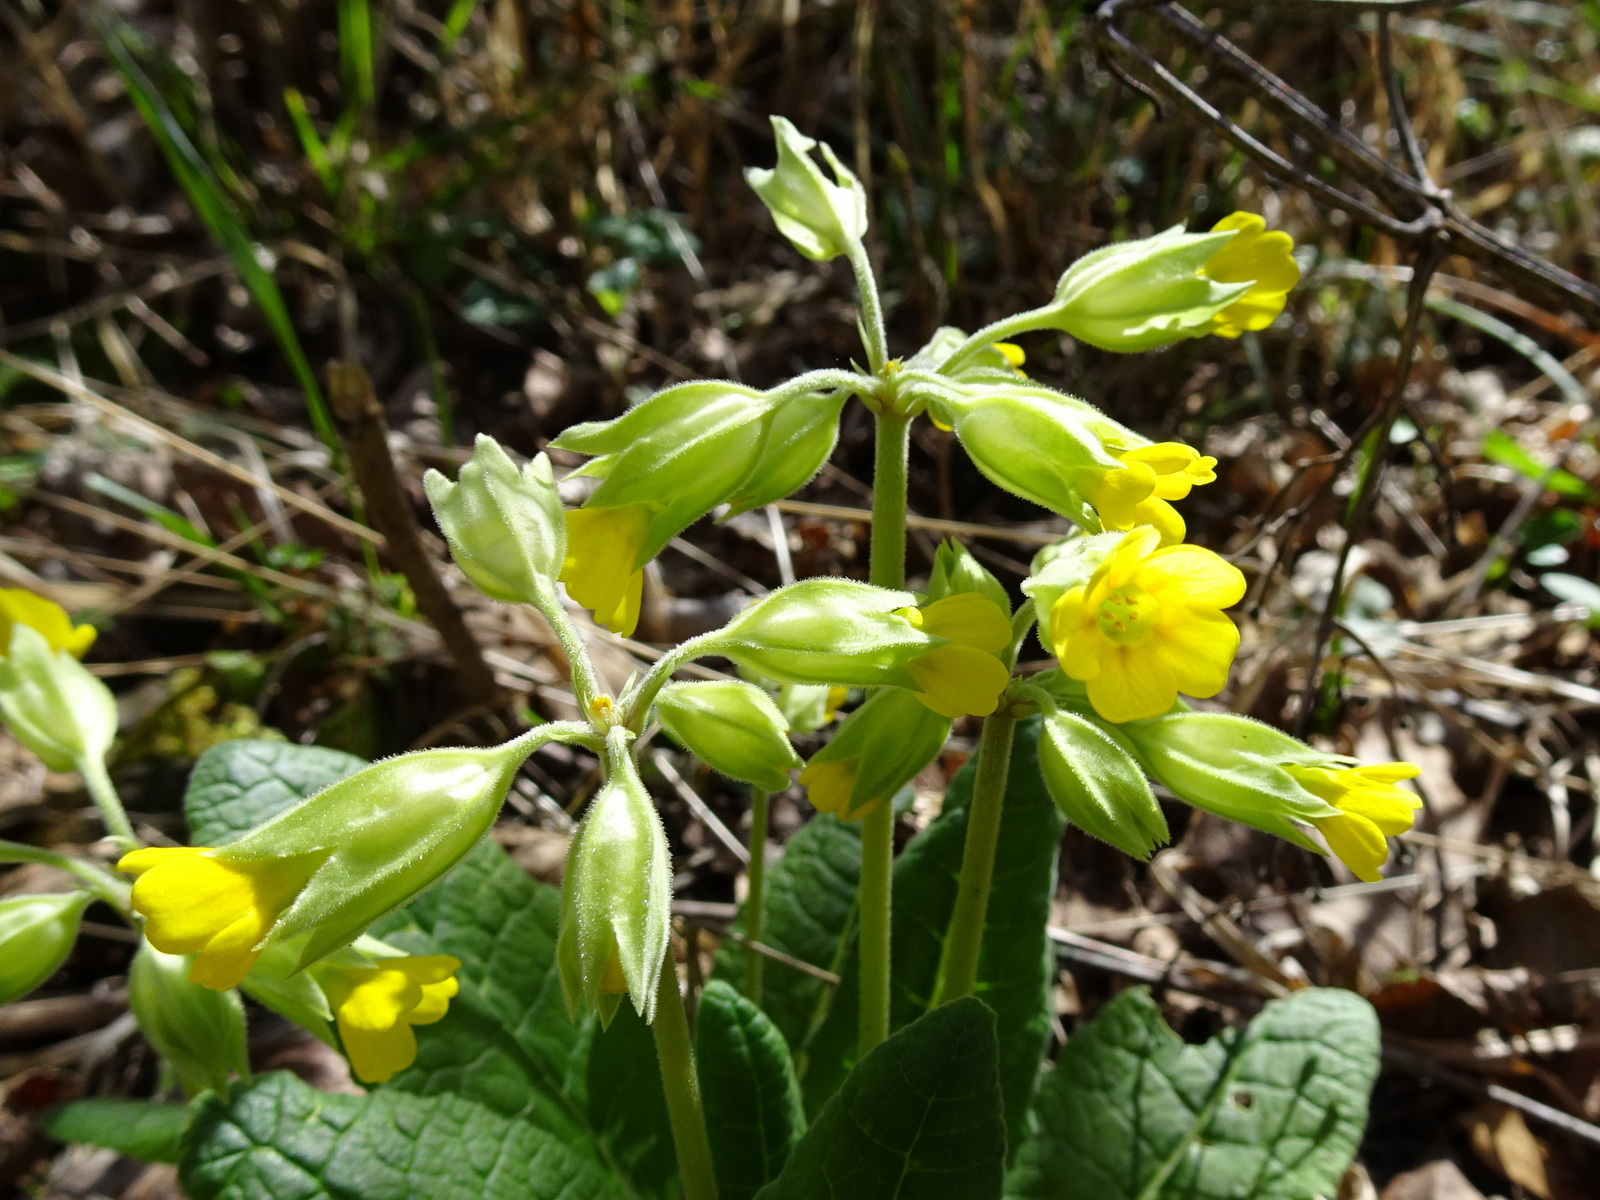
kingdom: Plantae
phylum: Tracheophyta
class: Magnoliopsida
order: Ericales
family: Primulaceae
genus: Primula
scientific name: Primula veris
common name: Cowslip
